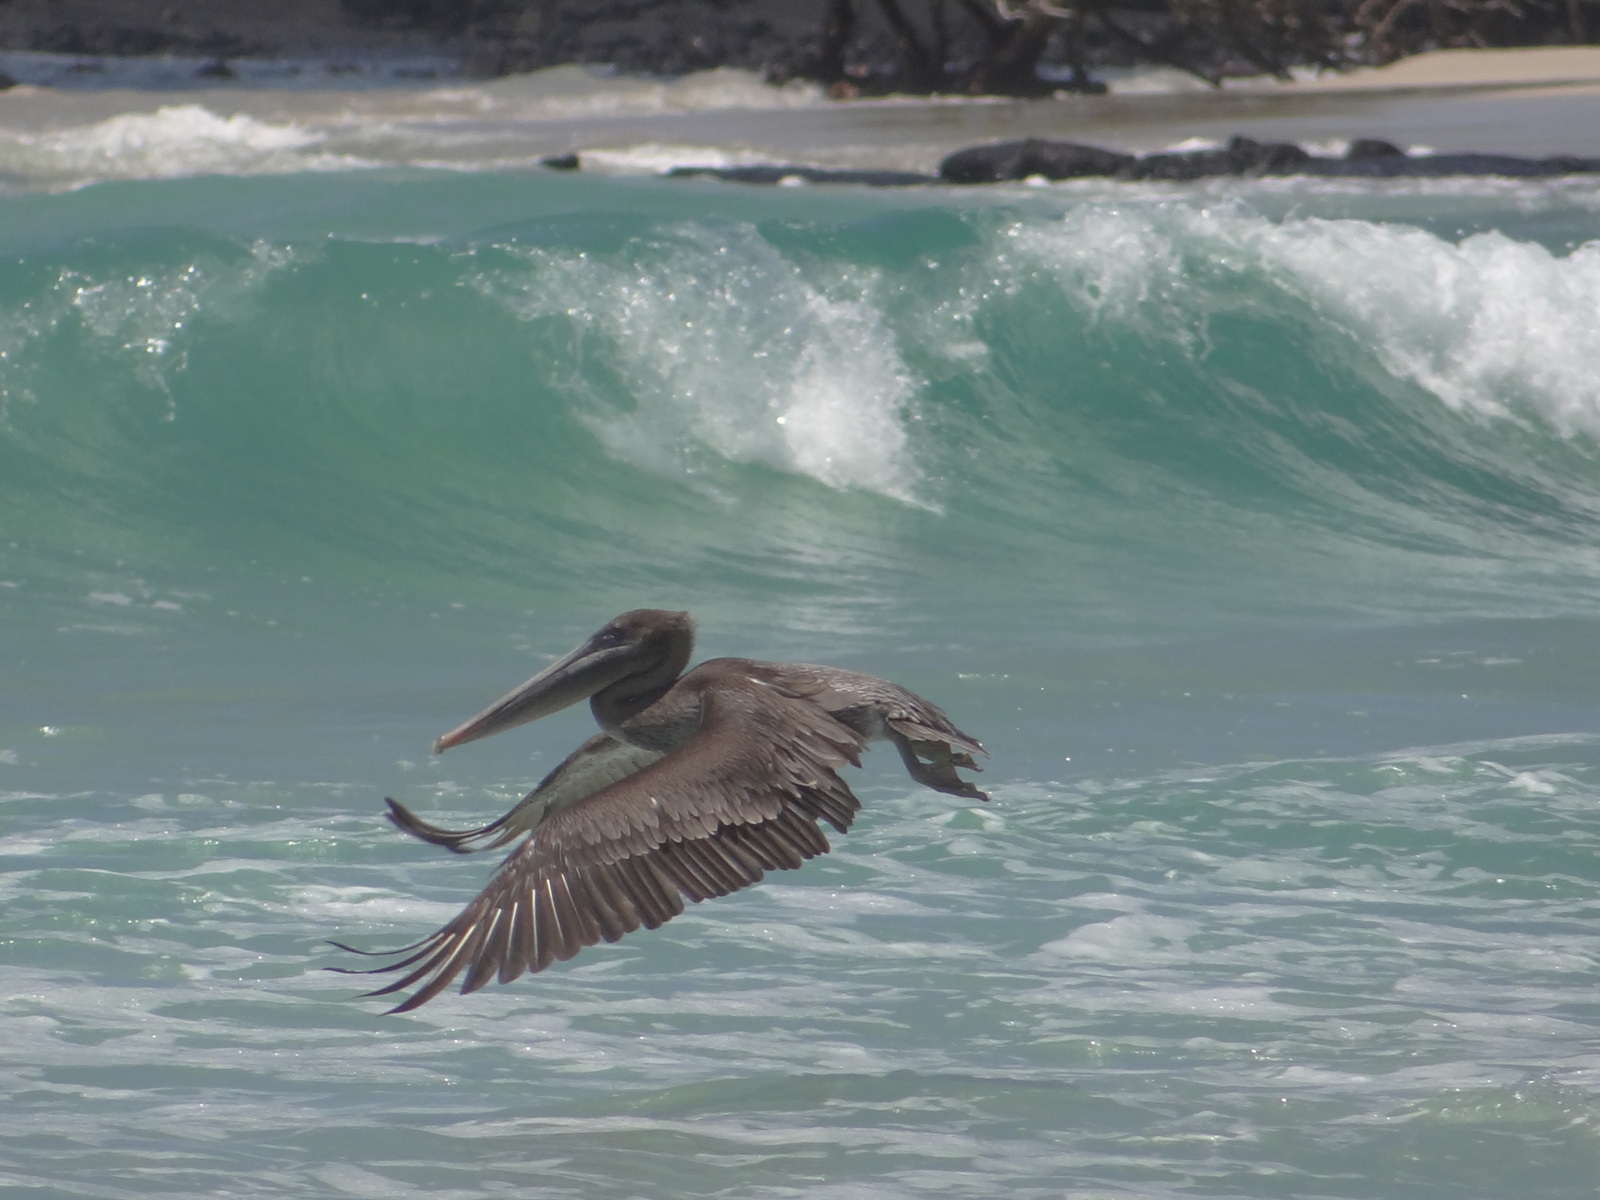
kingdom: Animalia
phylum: Chordata
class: Aves
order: Pelecaniformes
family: Pelecanidae
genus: Pelecanus
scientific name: Pelecanus occidentalis
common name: Brown pelican
